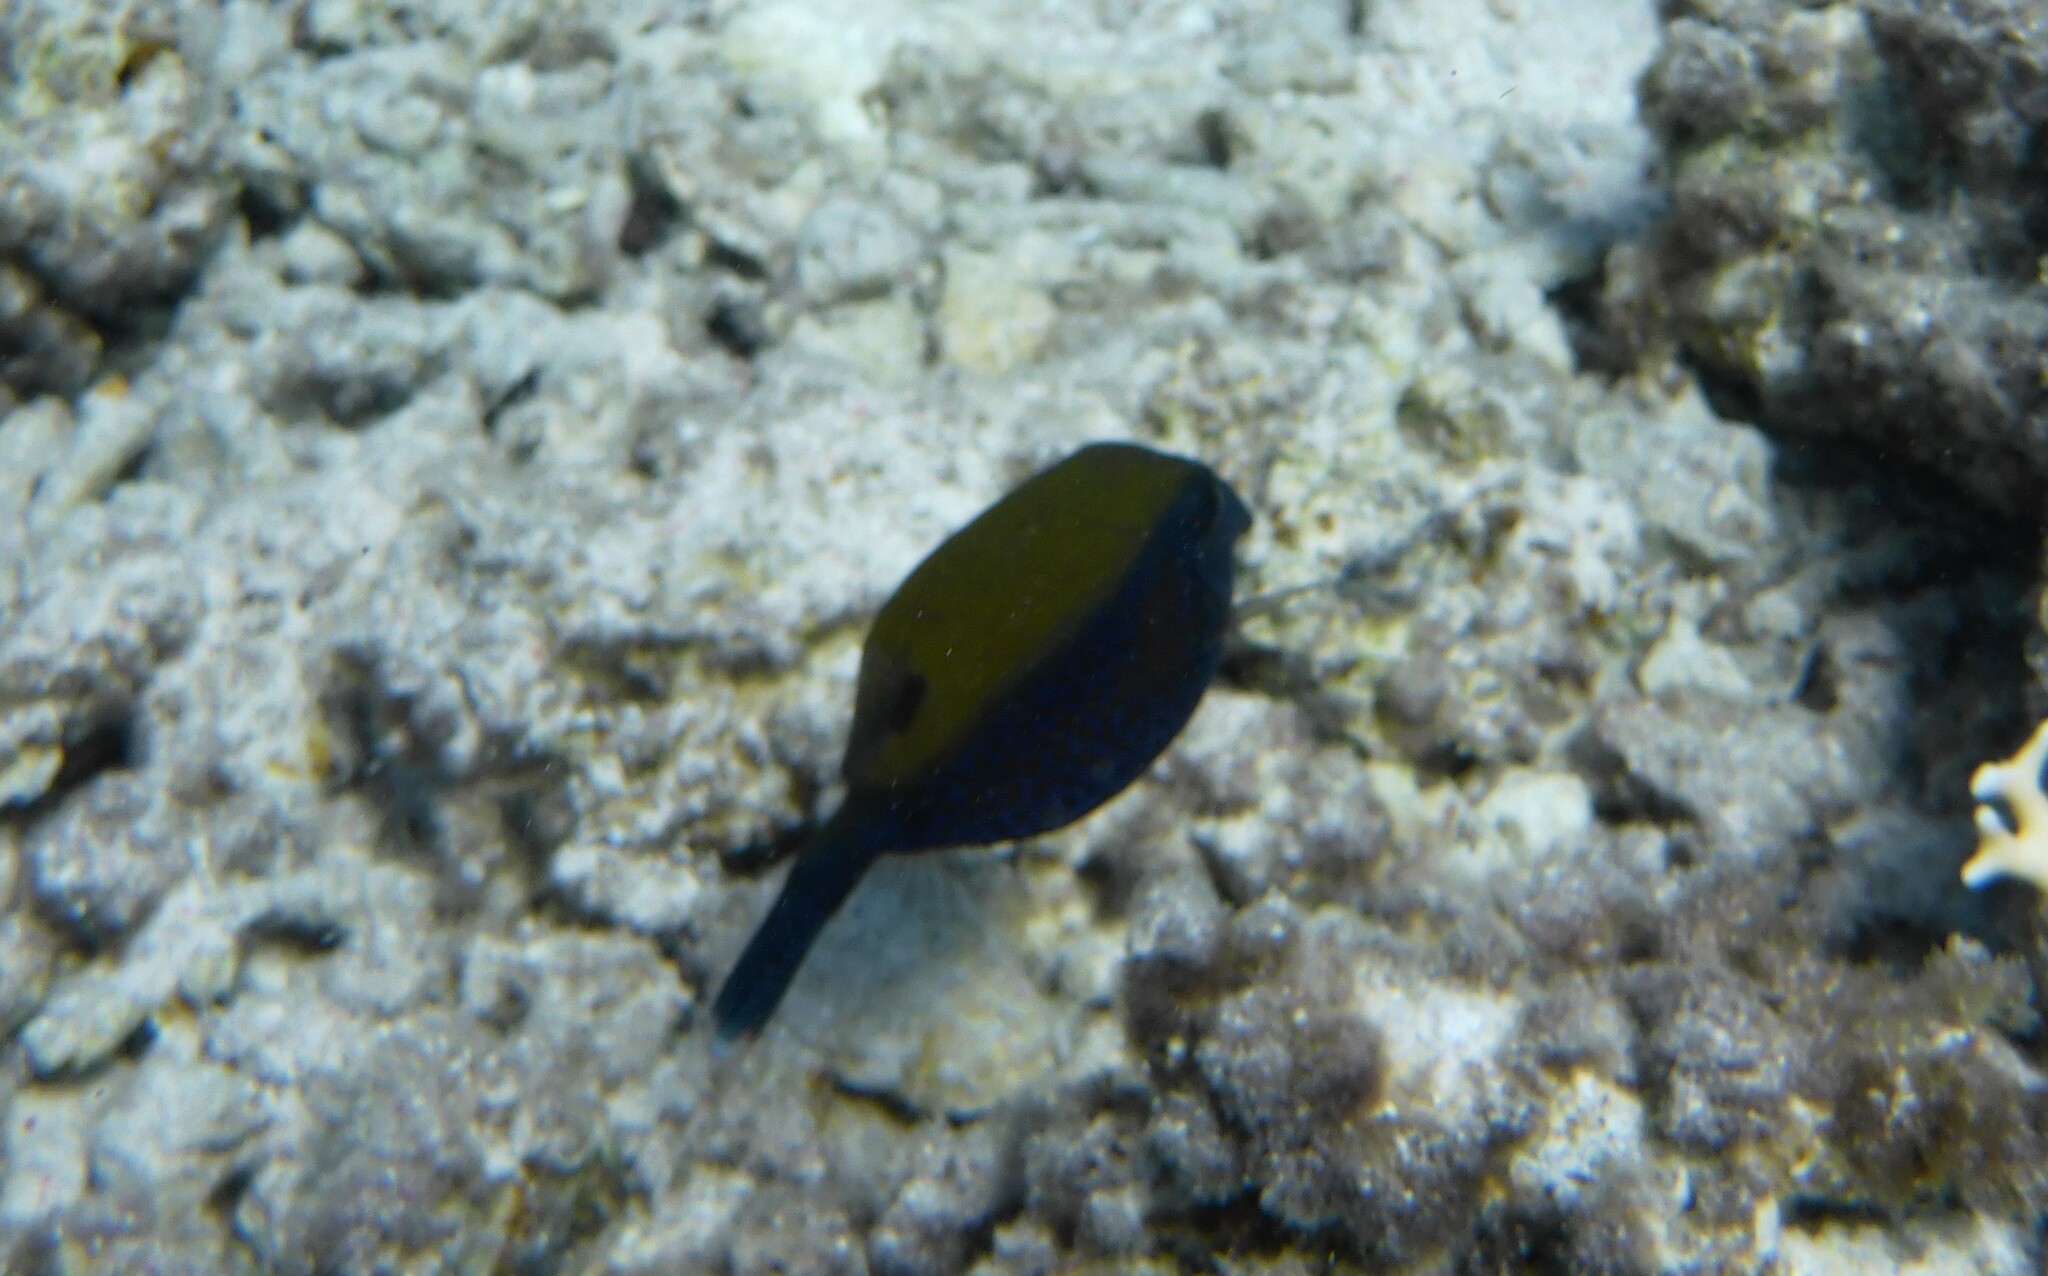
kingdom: Animalia
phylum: Chordata
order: Tetraodontiformes
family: Ostraciidae
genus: Ostracion
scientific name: Ostracion cyanurus
